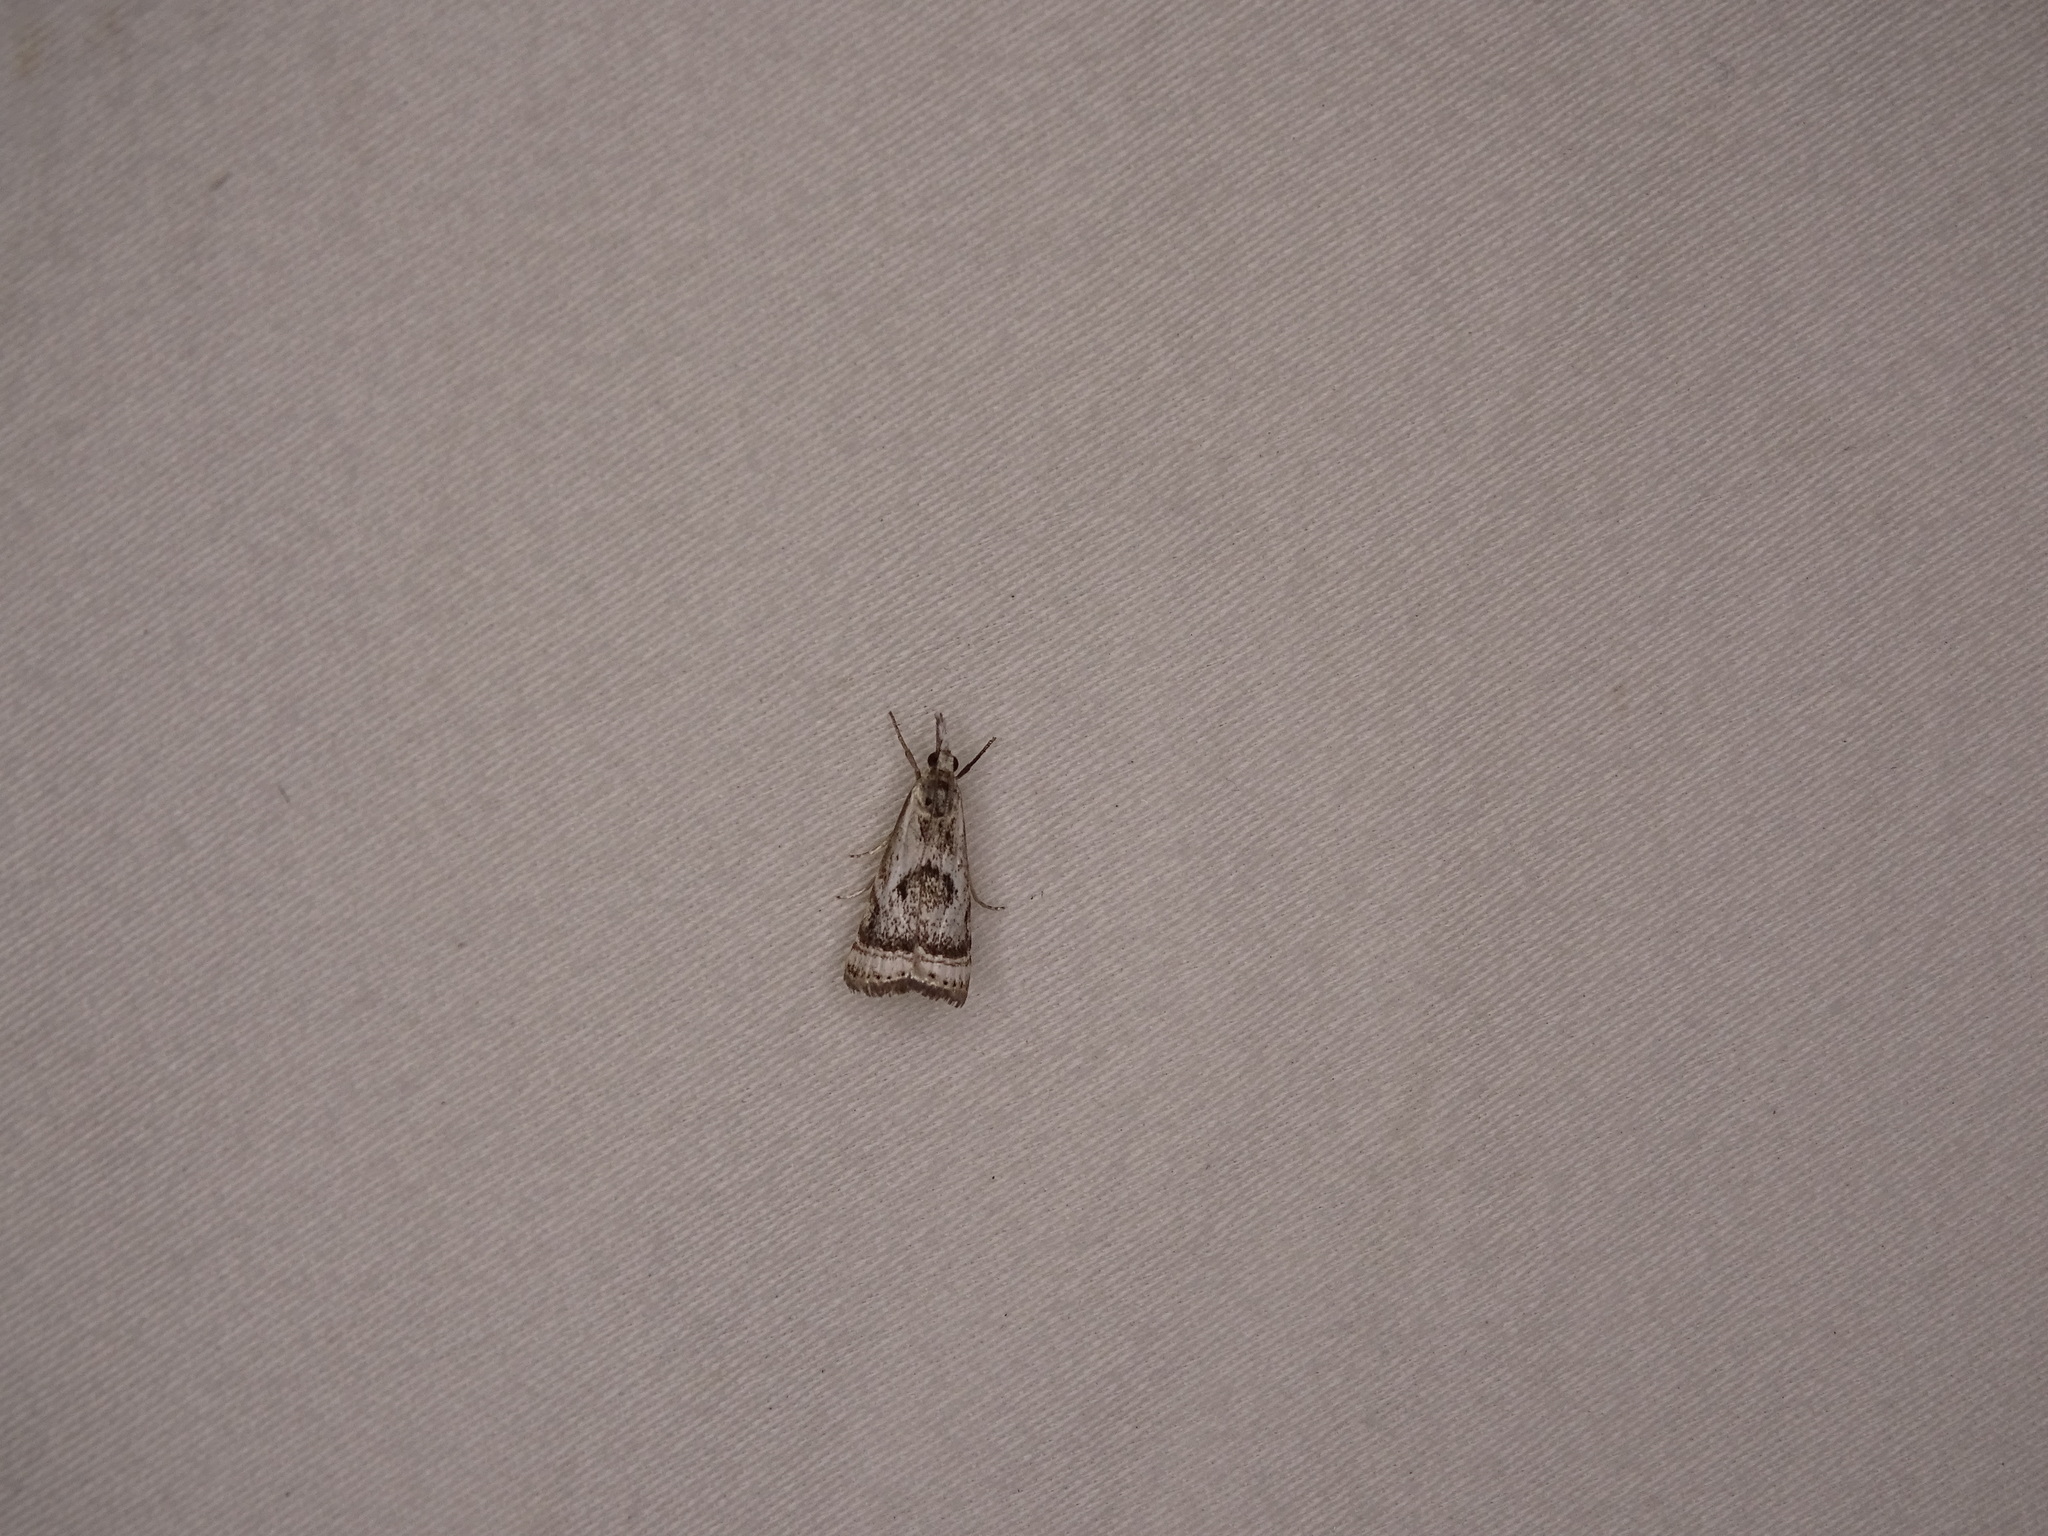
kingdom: Animalia
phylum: Arthropoda
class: Insecta
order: Lepidoptera
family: Crambidae
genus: Microcrambus
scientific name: Microcrambus elegans
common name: Elegant grass-veneer
